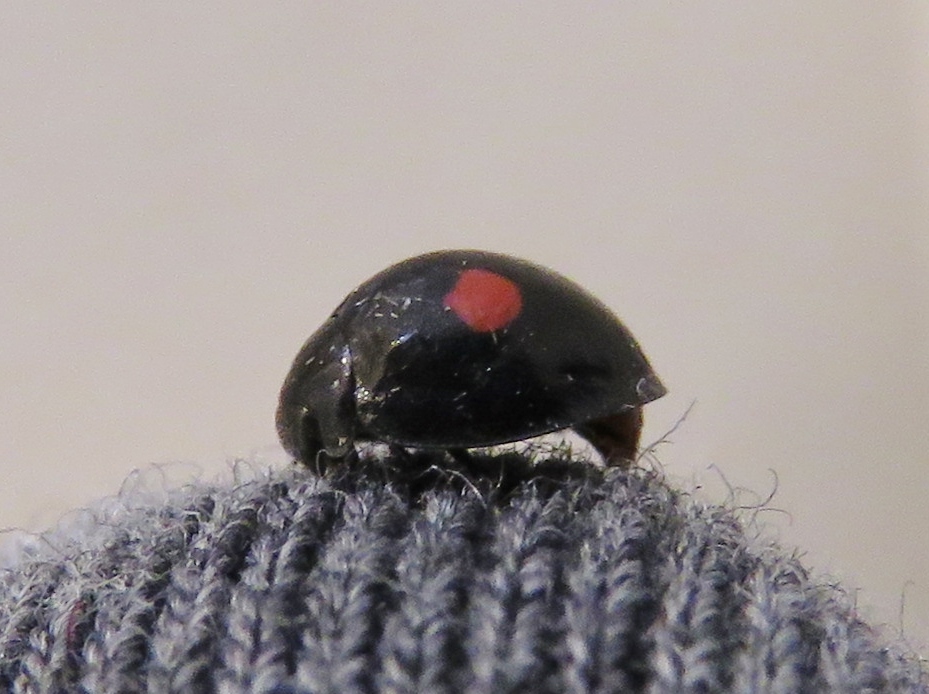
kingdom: Animalia
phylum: Arthropoda
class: Insecta
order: Coleoptera
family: Coccinellidae
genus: Chilocorus
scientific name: Chilocorus stigma
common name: Twicestabbed lady beetle
